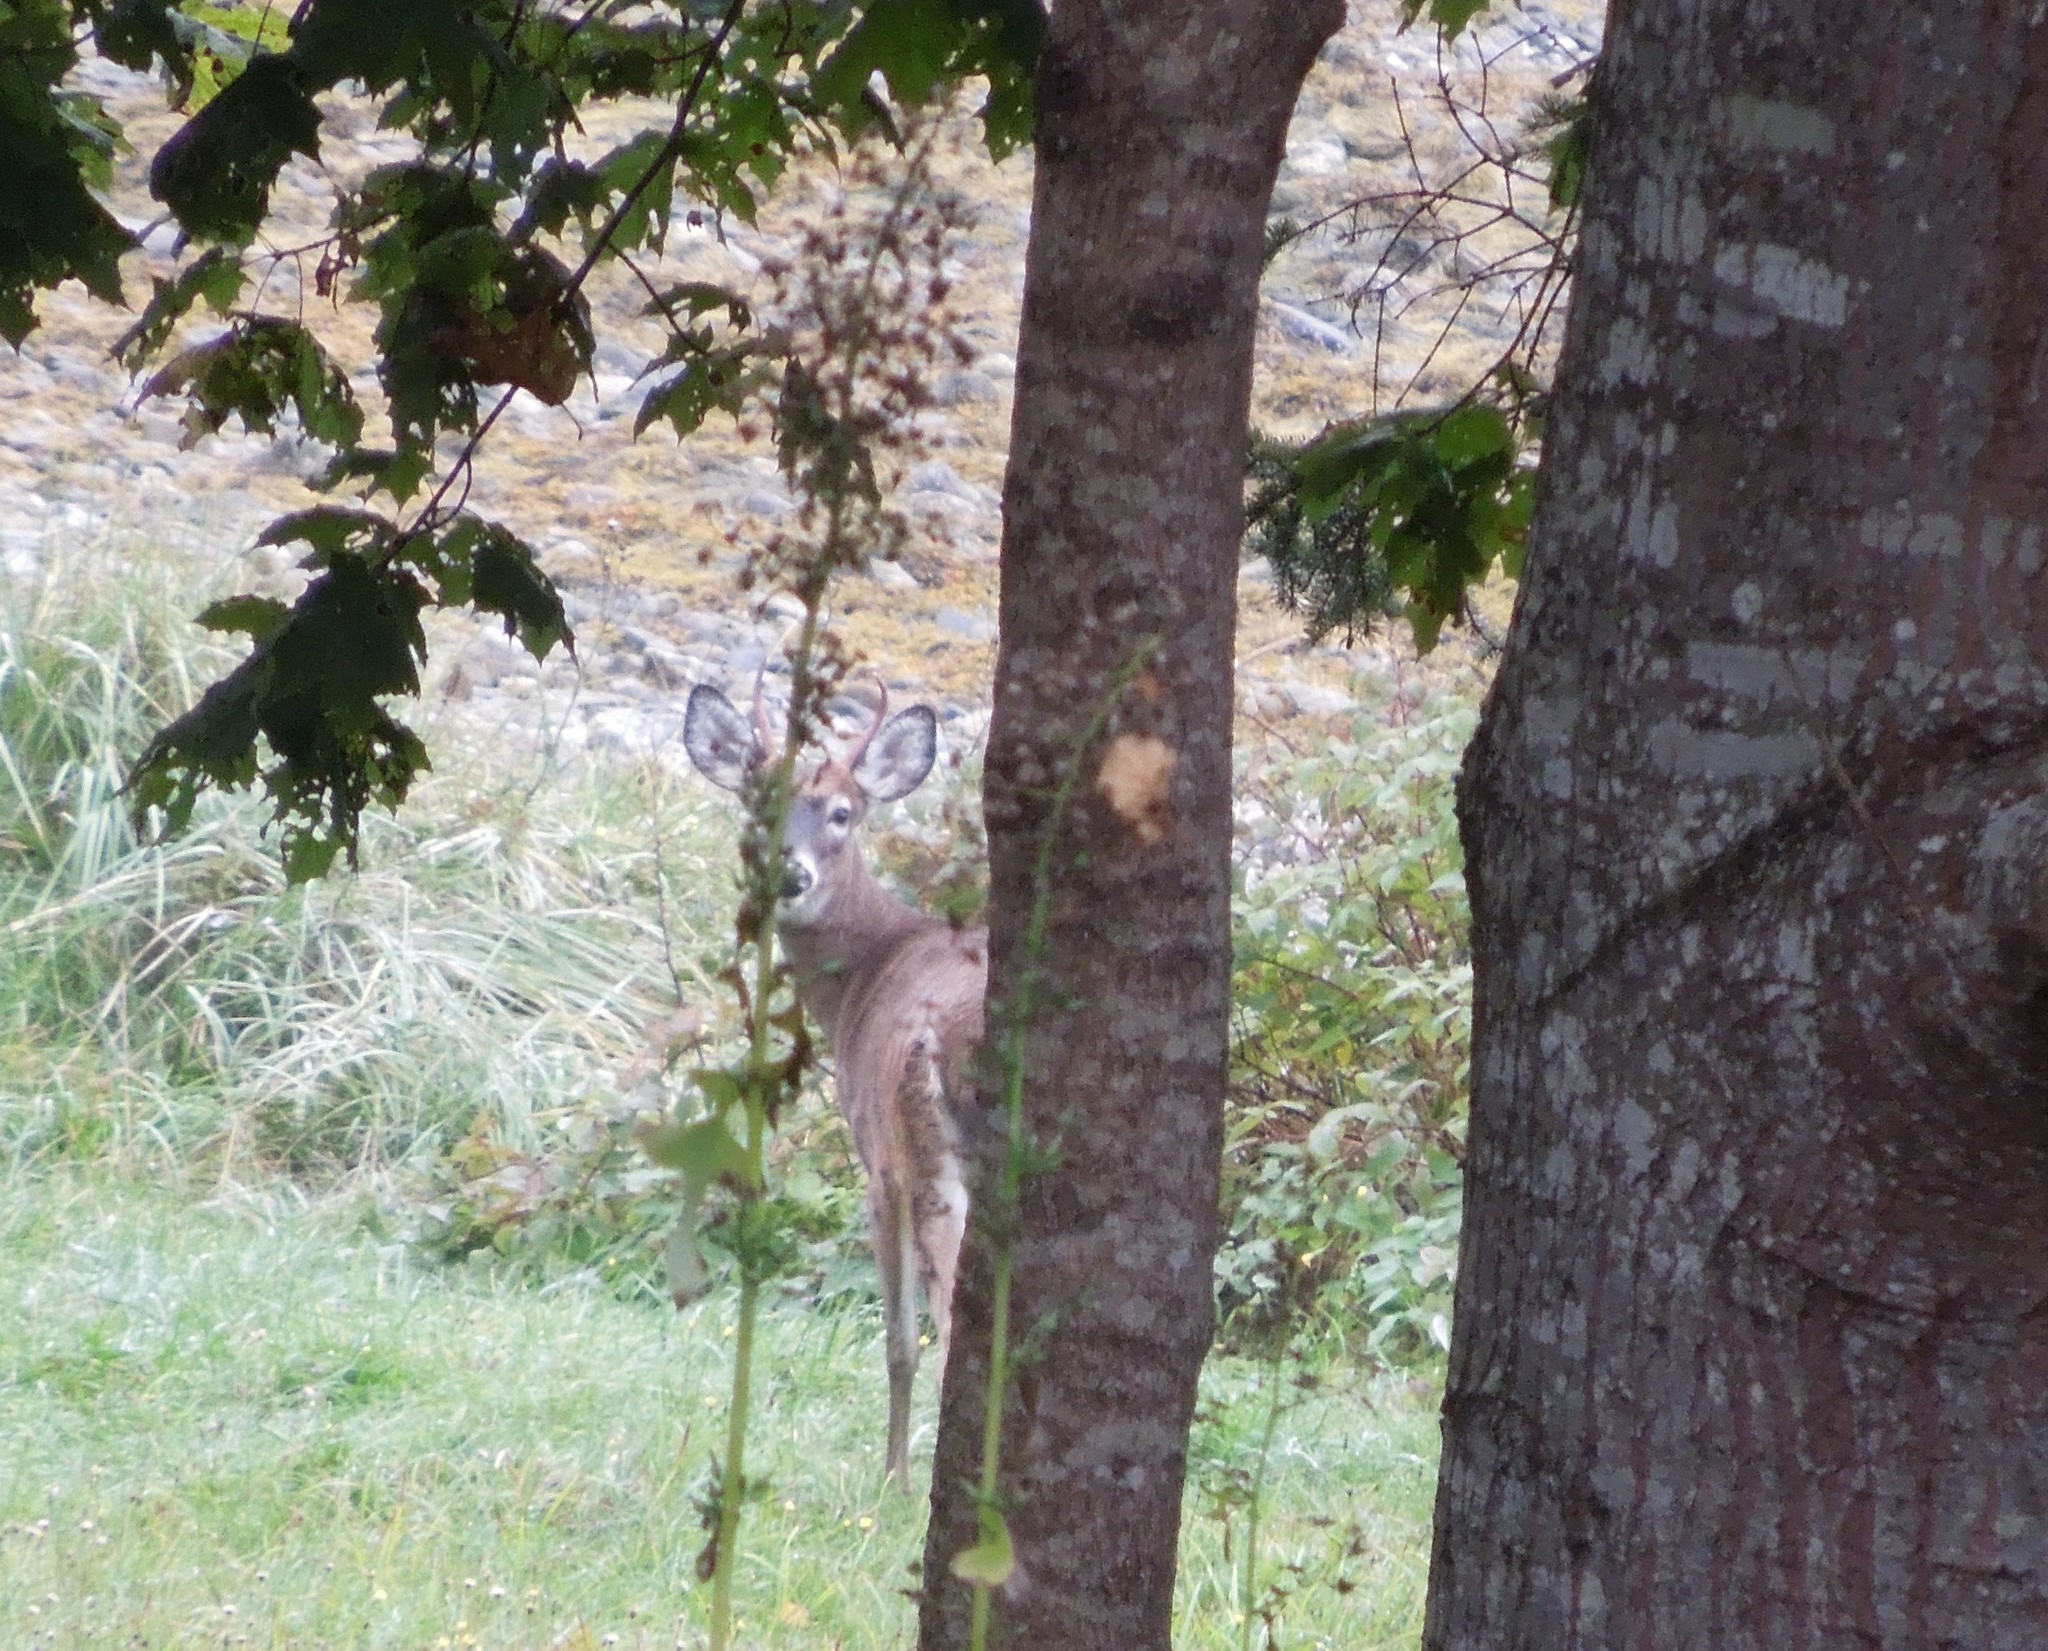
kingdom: Animalia
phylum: Chordata
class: Mammalia
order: Artiodactyla
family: Cervidae
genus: Odocoileus
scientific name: Odocoileus virginianus
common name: White-tailed deer
